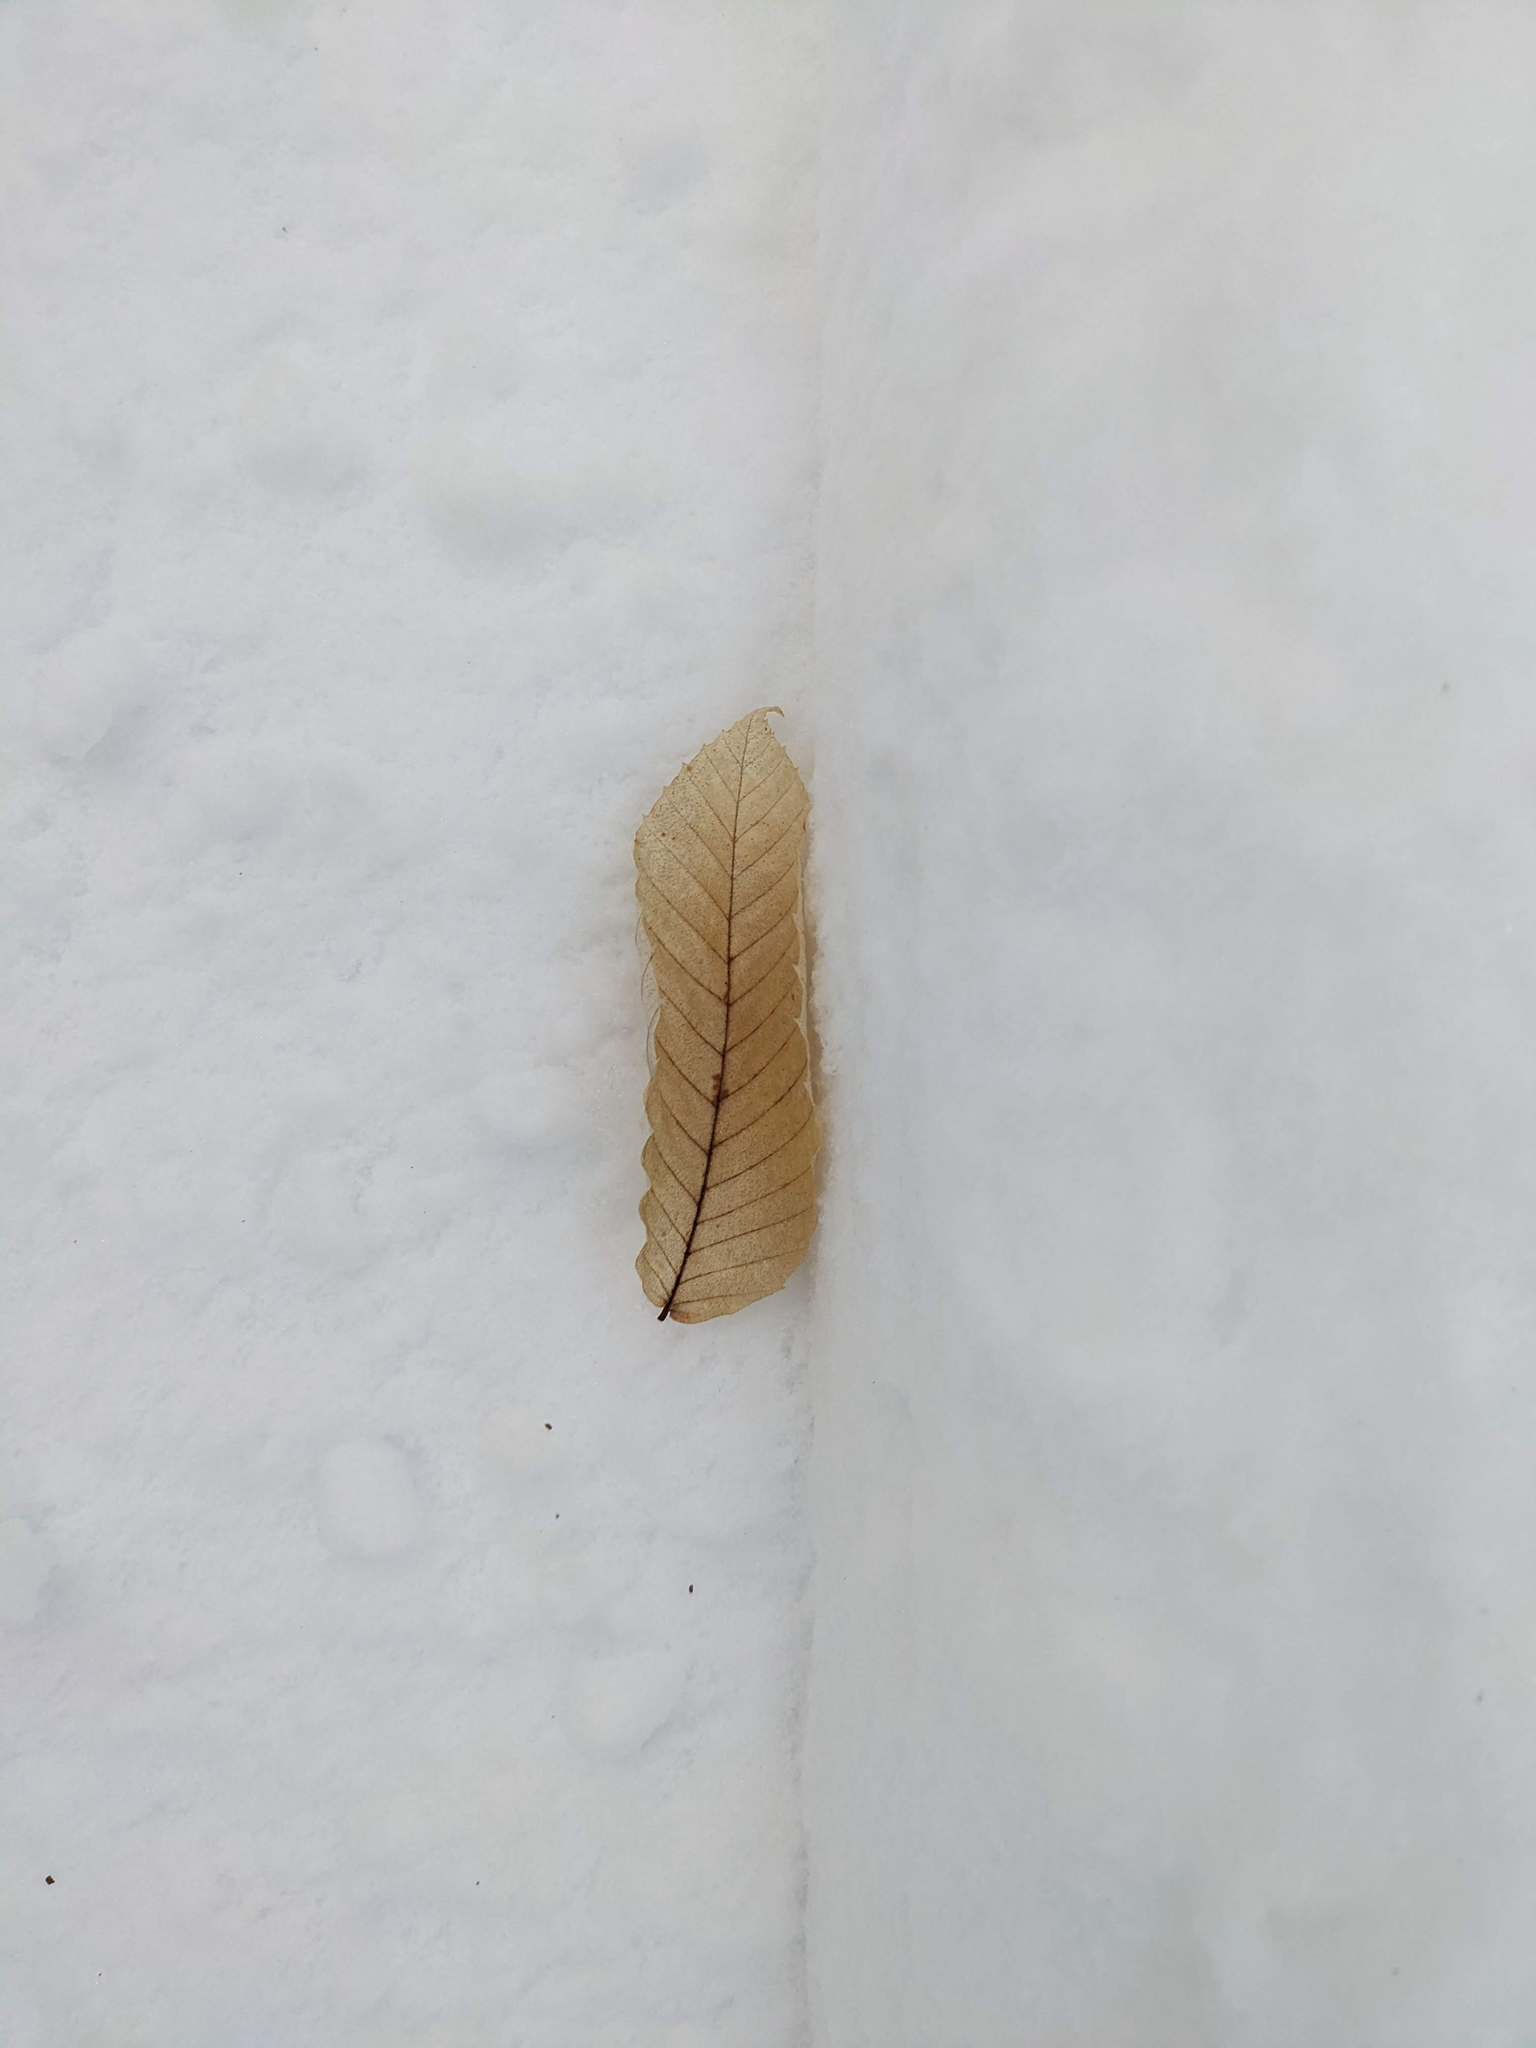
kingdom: Plantae
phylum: Tracheophyta
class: Magnoliopsida
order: Fagales
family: Fagaceae
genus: Fagus
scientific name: Fagus grandifolia
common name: American beech
